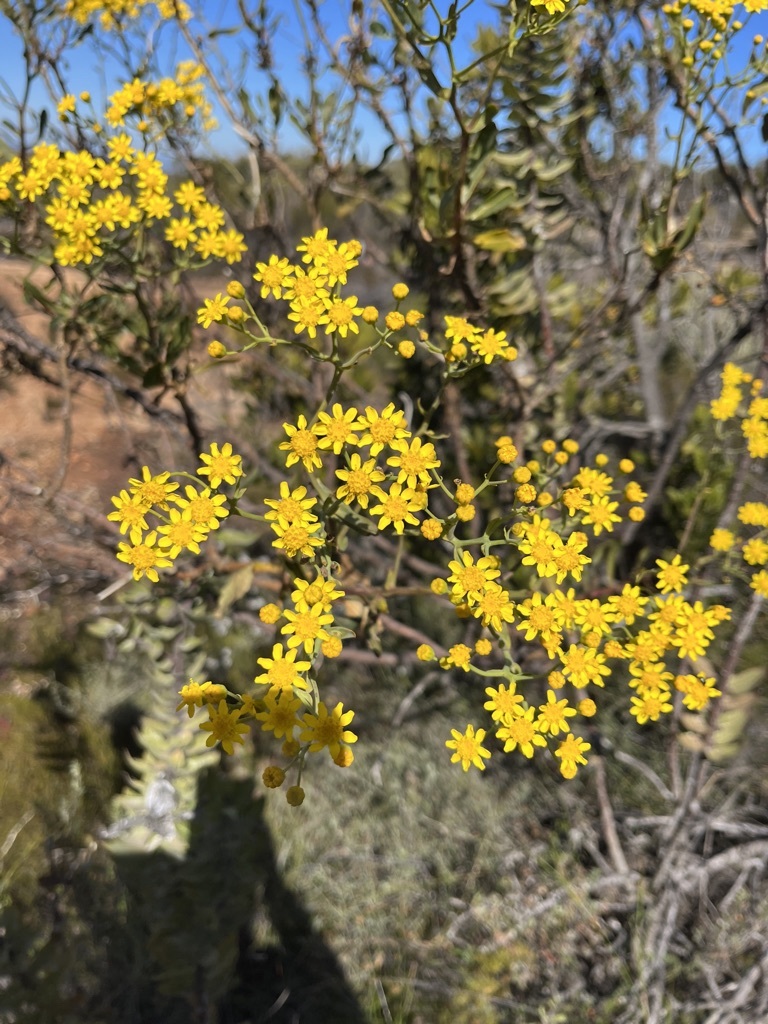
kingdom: Plantae
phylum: Tracheophyta
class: Magnoliopsida
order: Asterales
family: Asteraceae
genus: Othonna
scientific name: Othonna parviflora
